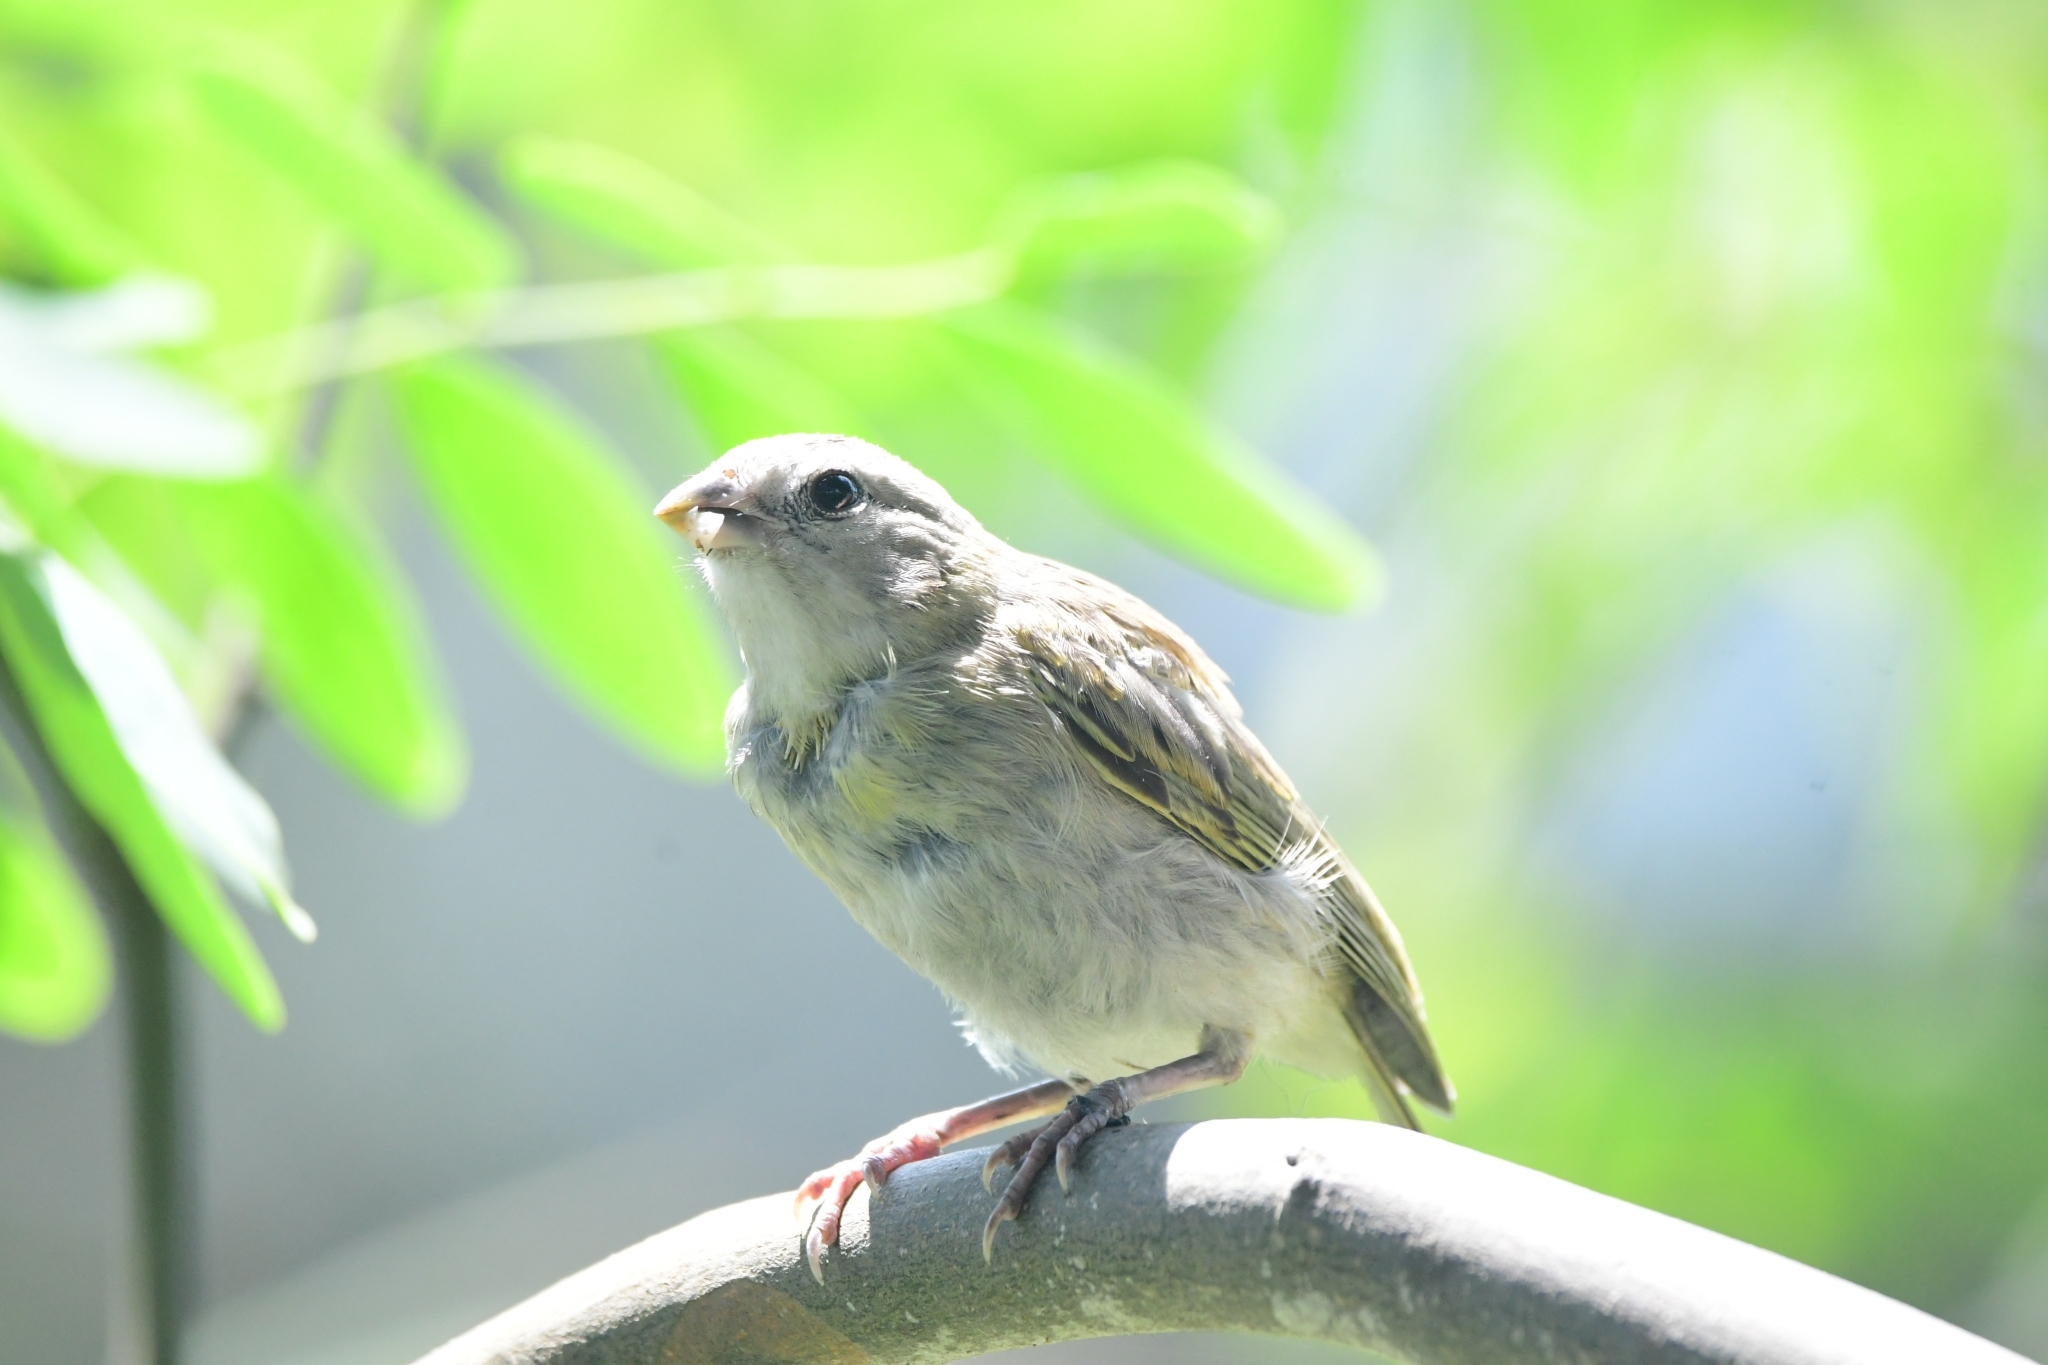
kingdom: Animalia
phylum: Chordata
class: Aves
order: Passeriformes
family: Thraupidae
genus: Sicalis
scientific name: Sicalis flaveola
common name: Saffron finch
